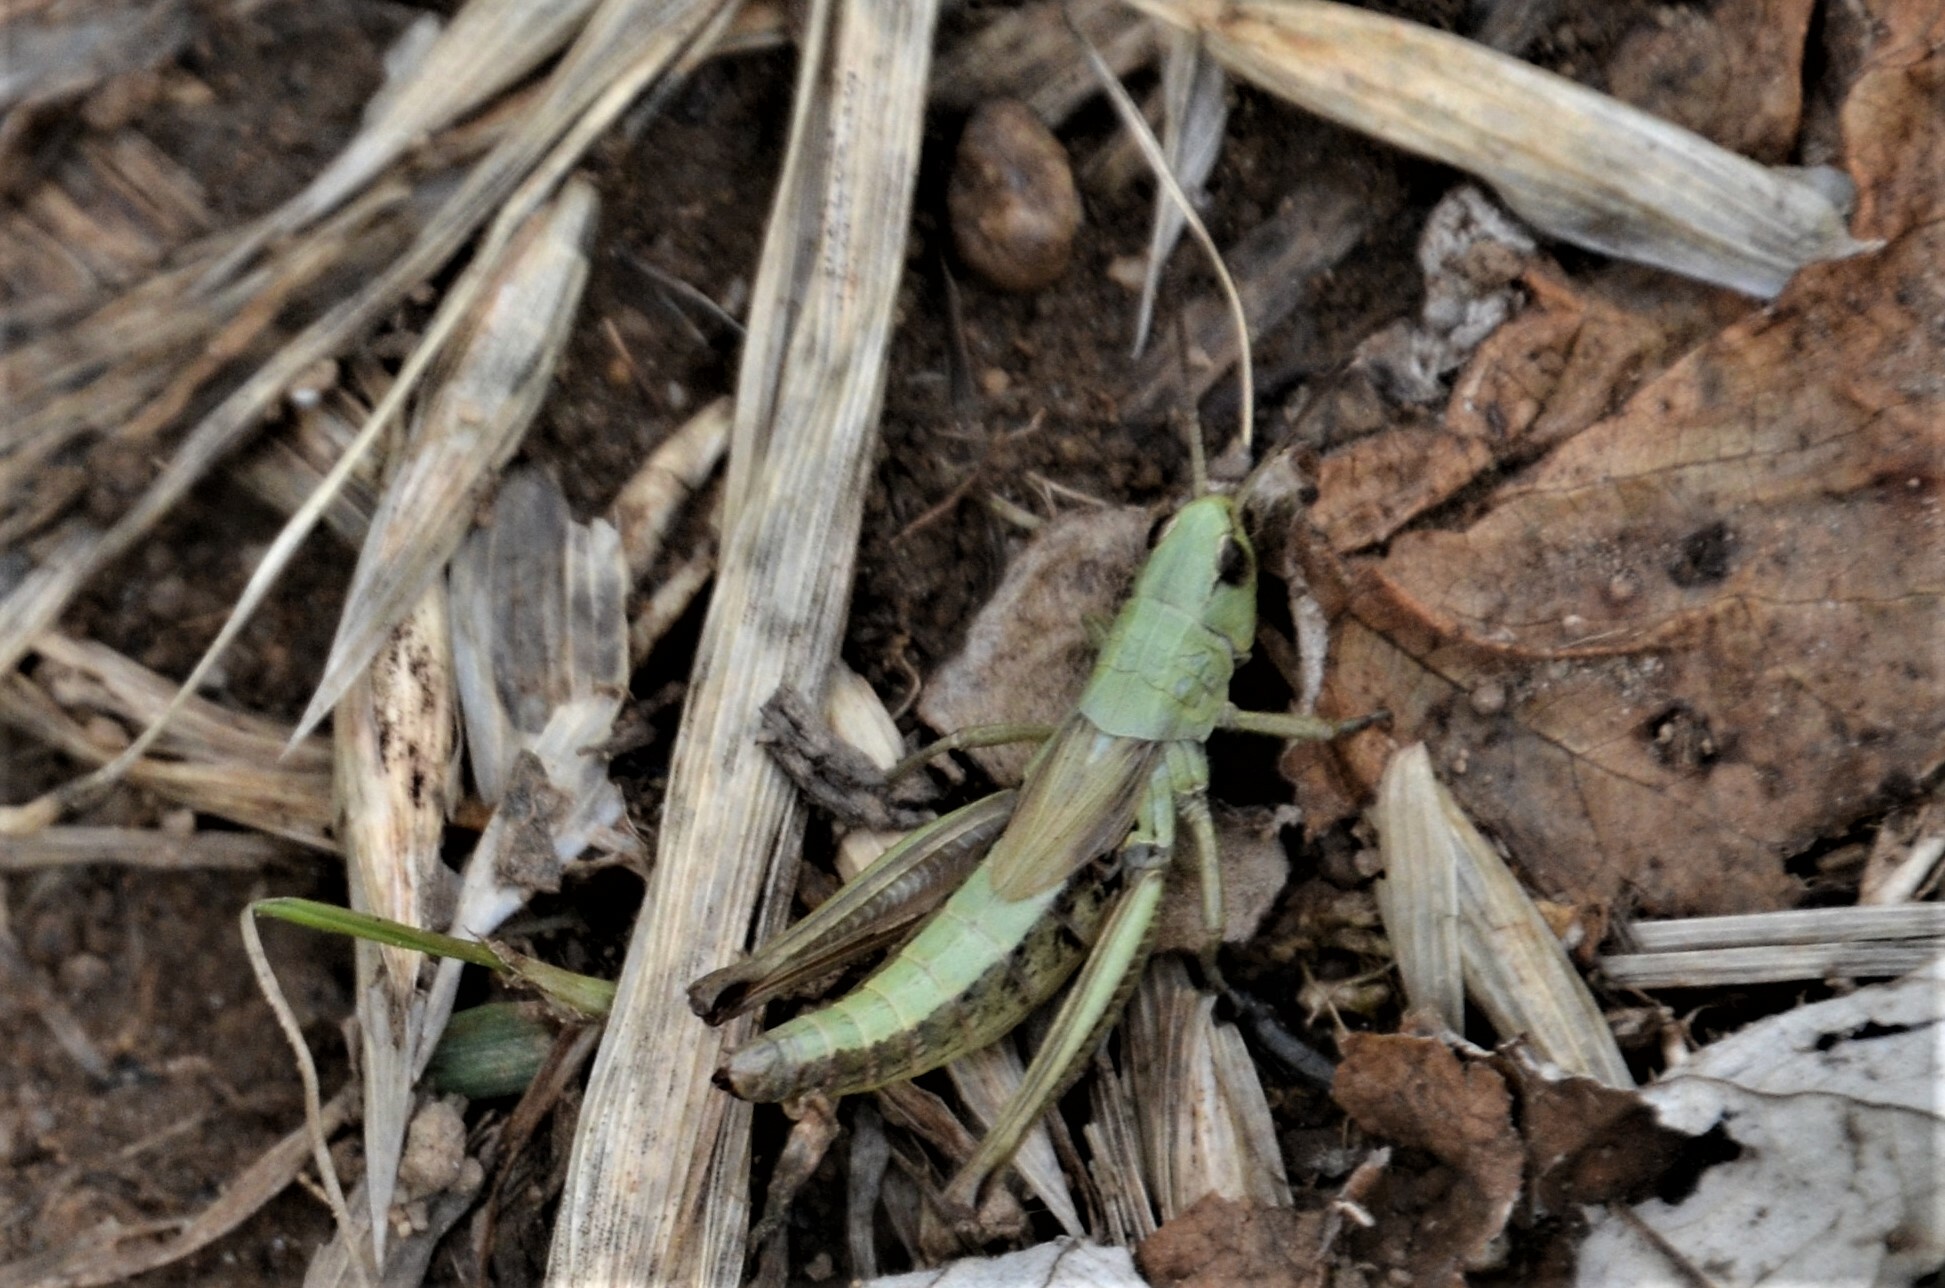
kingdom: Animalia
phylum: Arthropoda
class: Insecta
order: Orthoptera
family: Acrididae
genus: Pseudochorthippus
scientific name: Pseudochorthippus parallelus
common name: Meadow grasshopper
